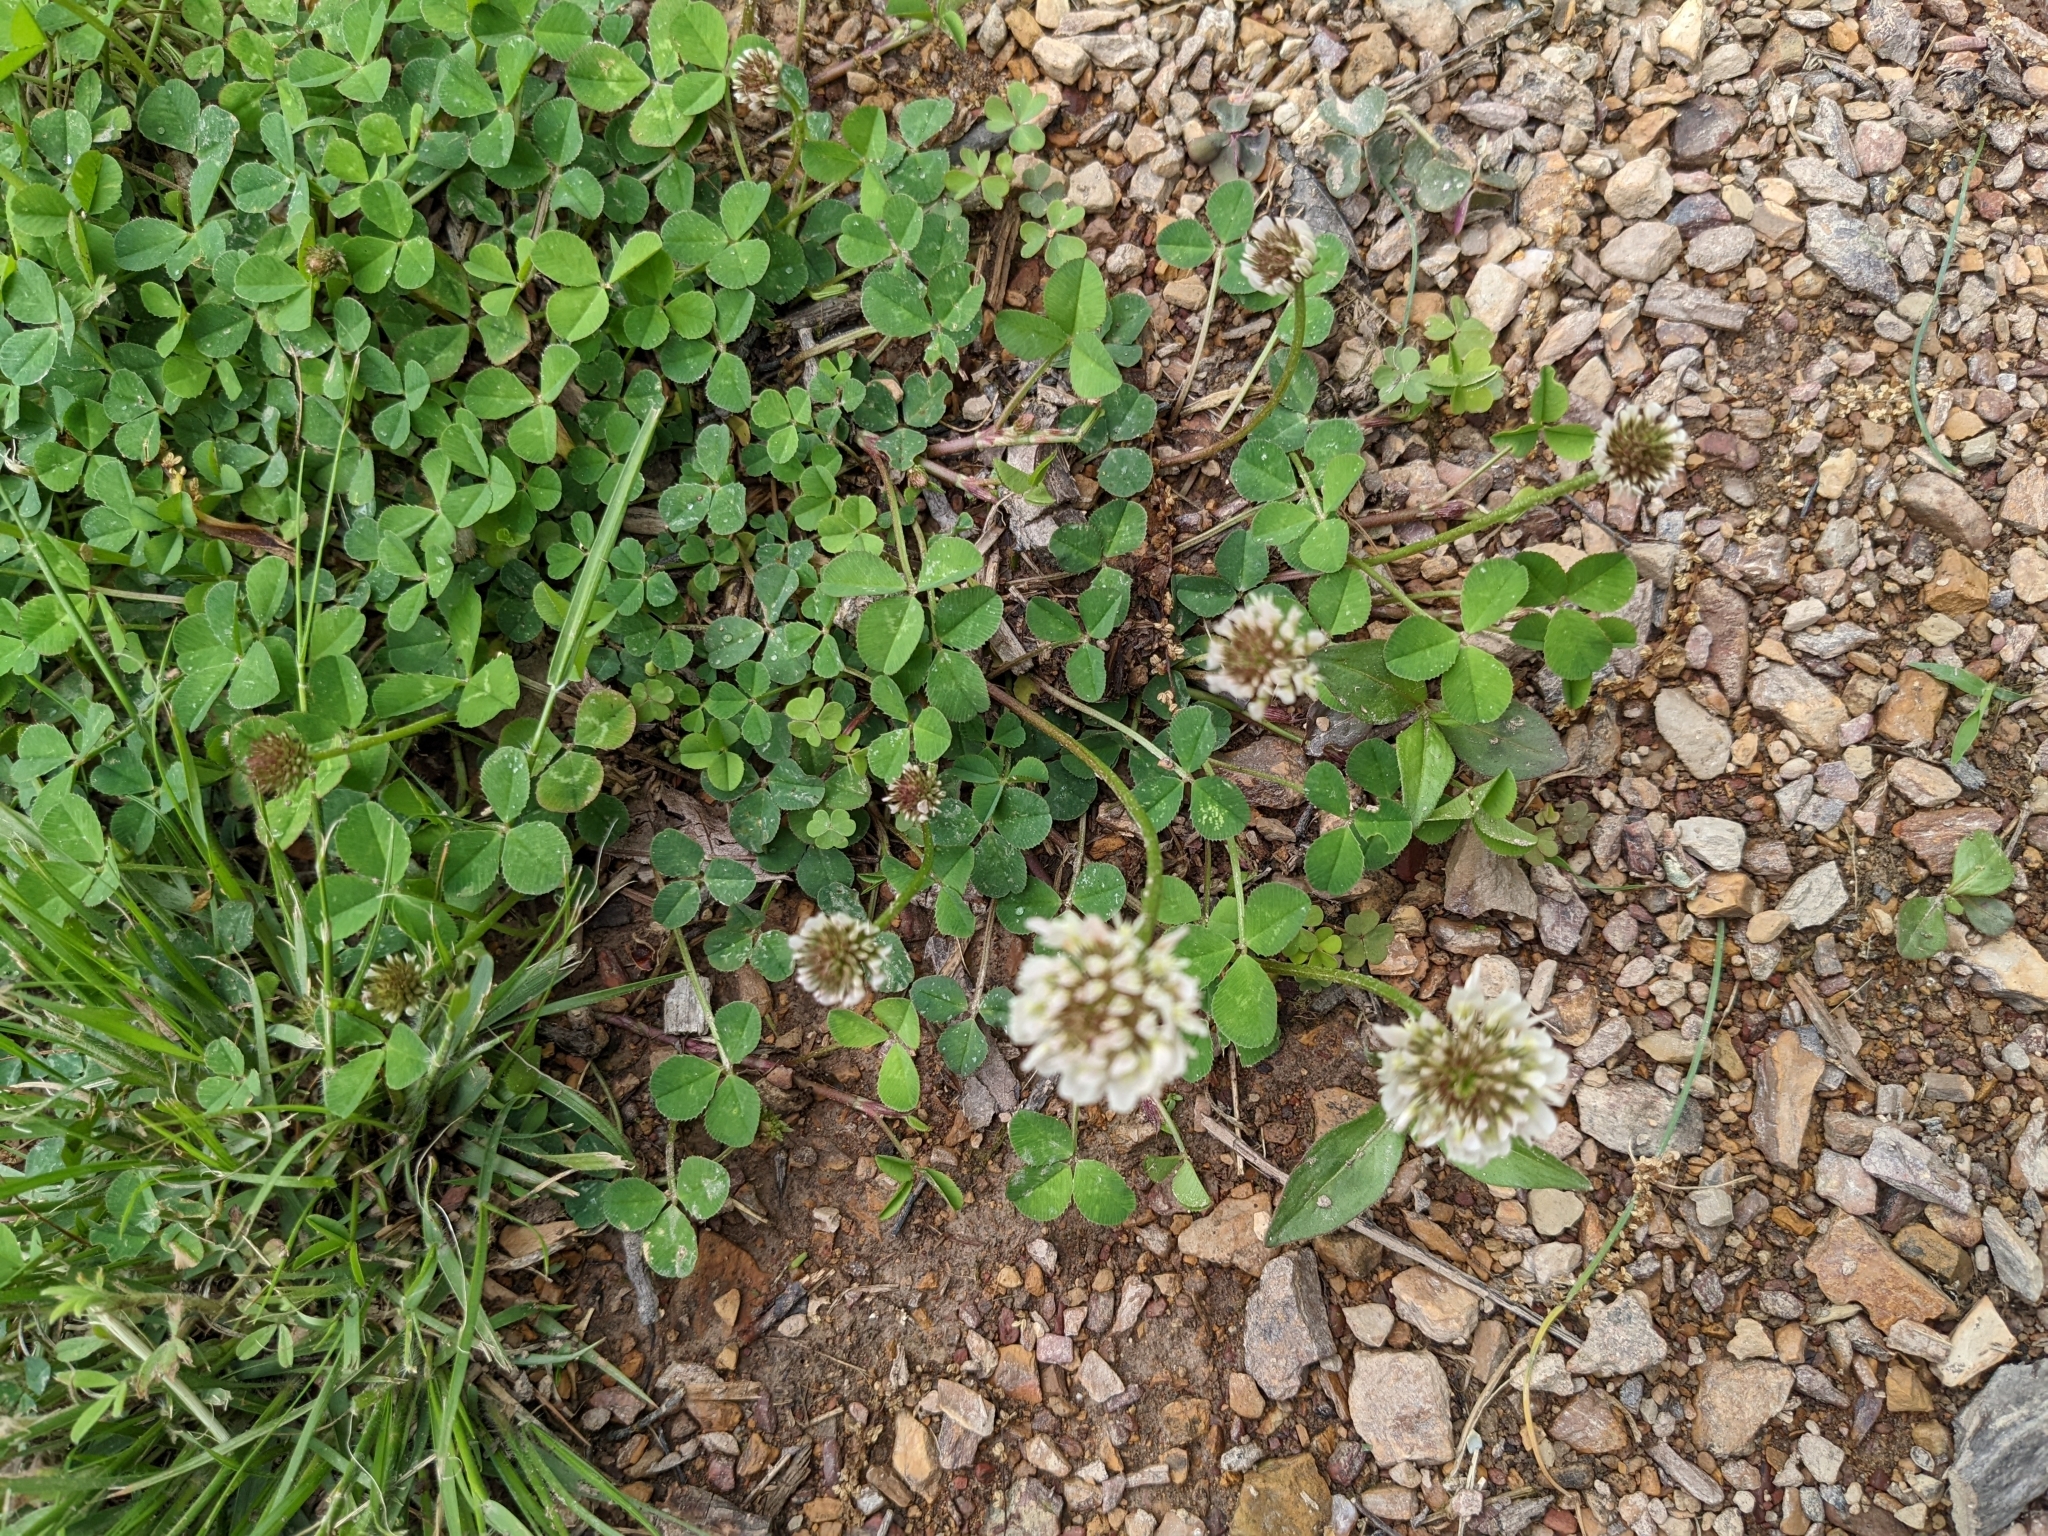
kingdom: Plantae
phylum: Tracheophyta
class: Magnoliopsida
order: Fabales
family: Fabaceae
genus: Trifolium
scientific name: Trifolium repens
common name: White clover
